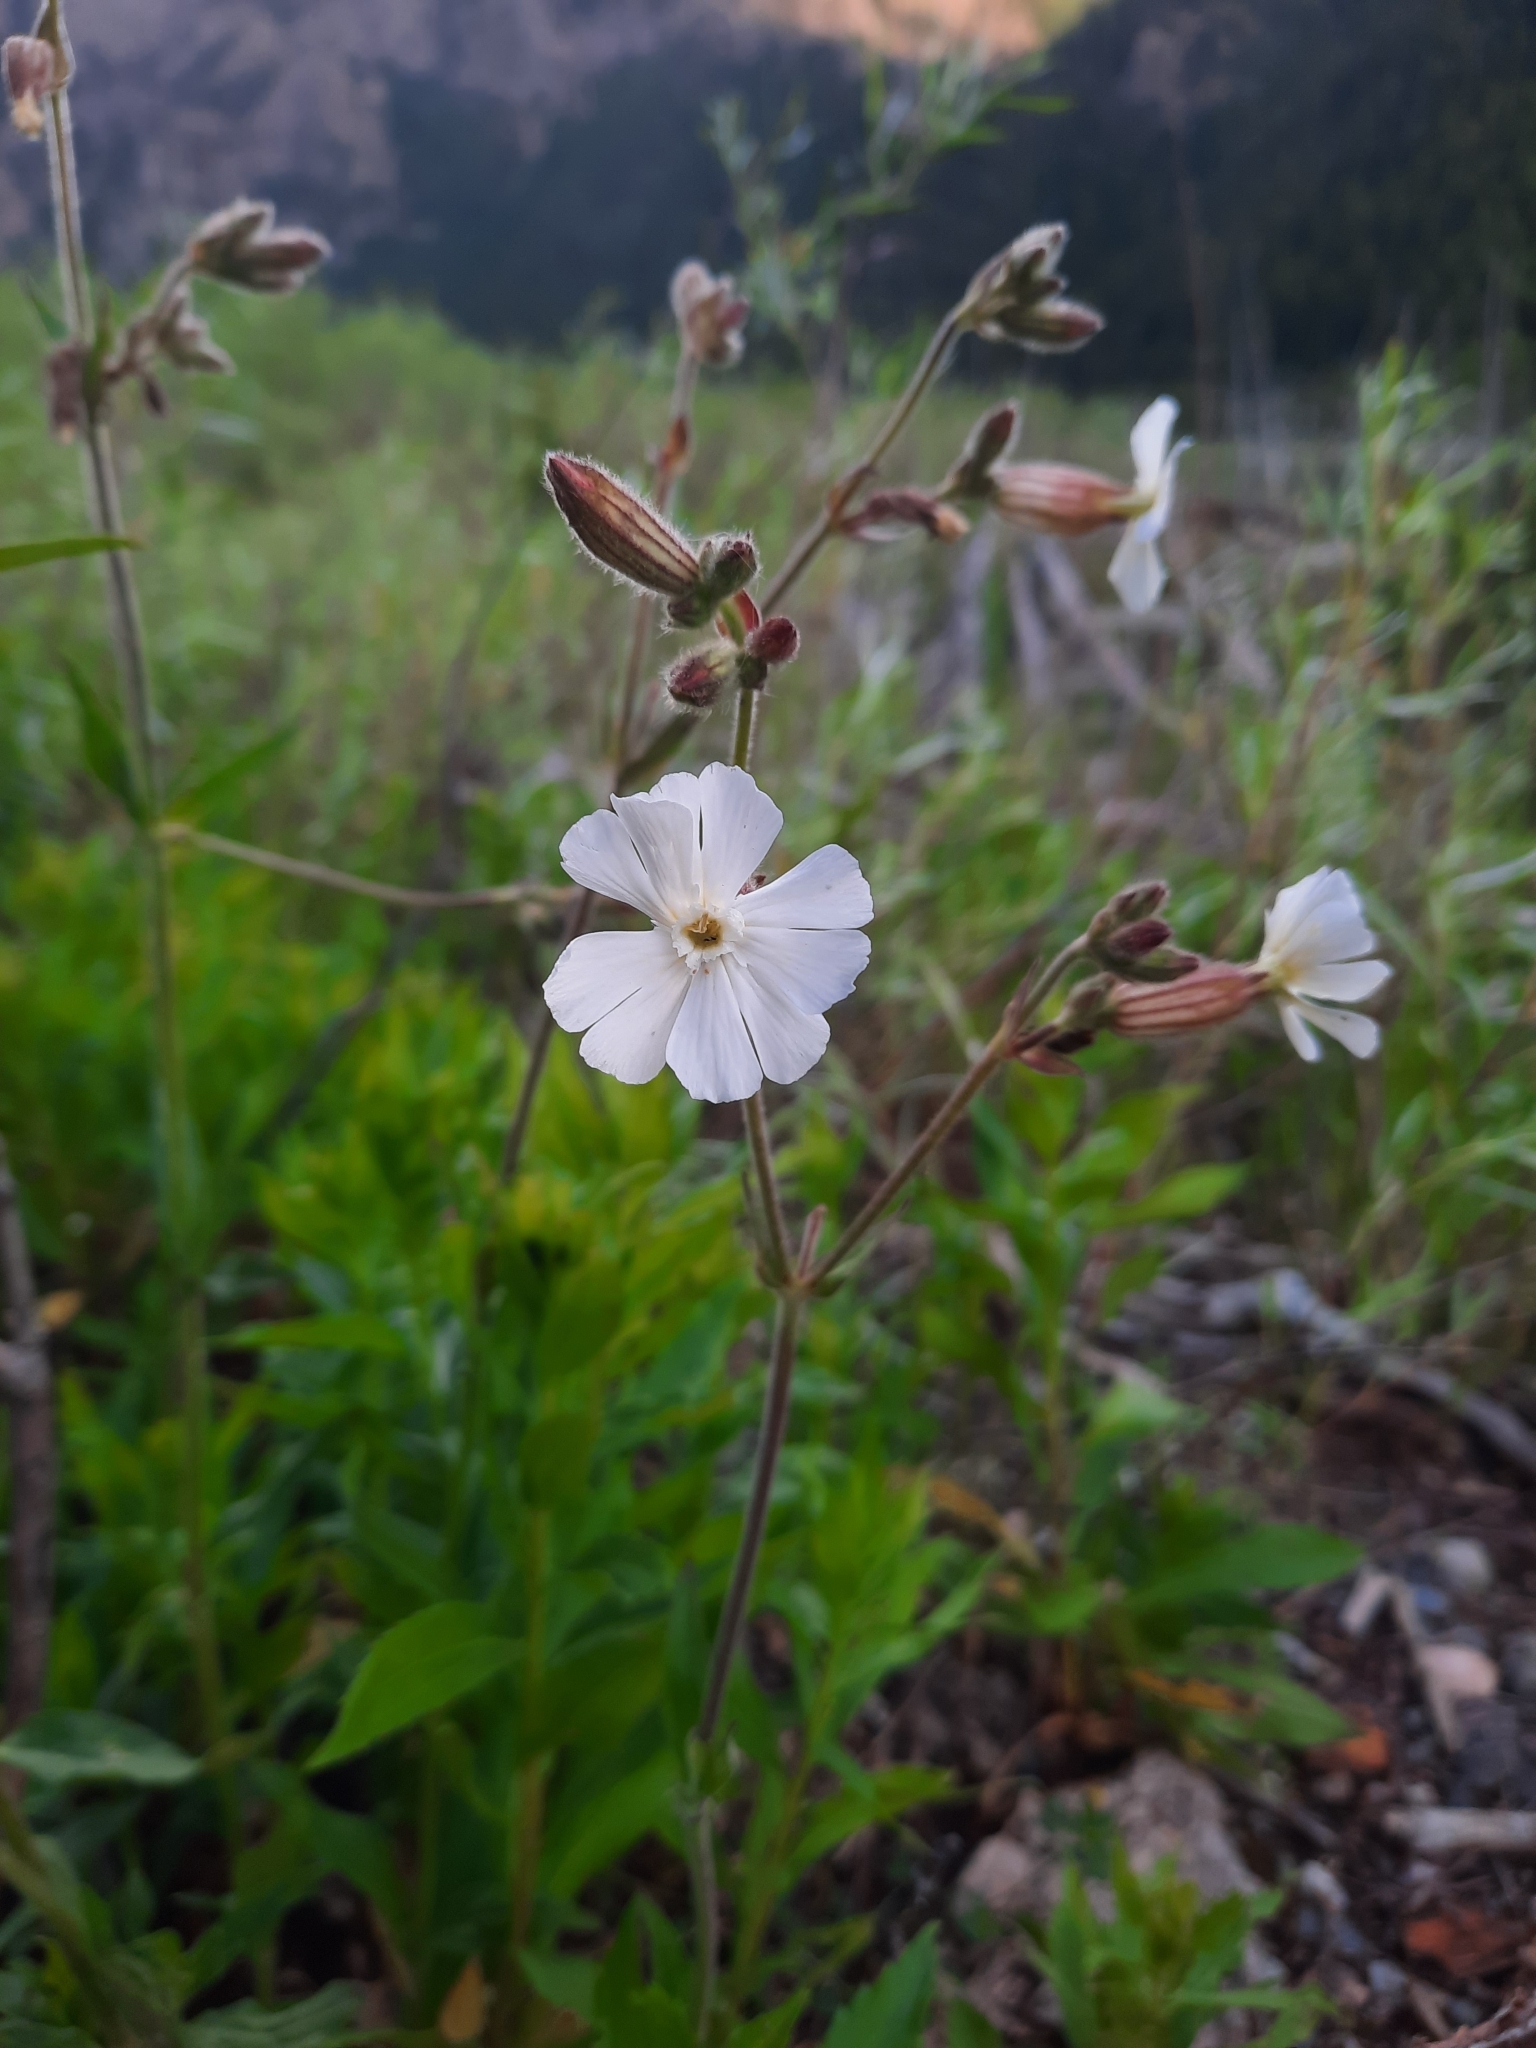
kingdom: Plantae
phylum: Tracheophyta
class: Magnoliopsida
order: Caryophyllales
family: Caryophyllaceae
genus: Silene
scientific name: Silene latifolia
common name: White campion
